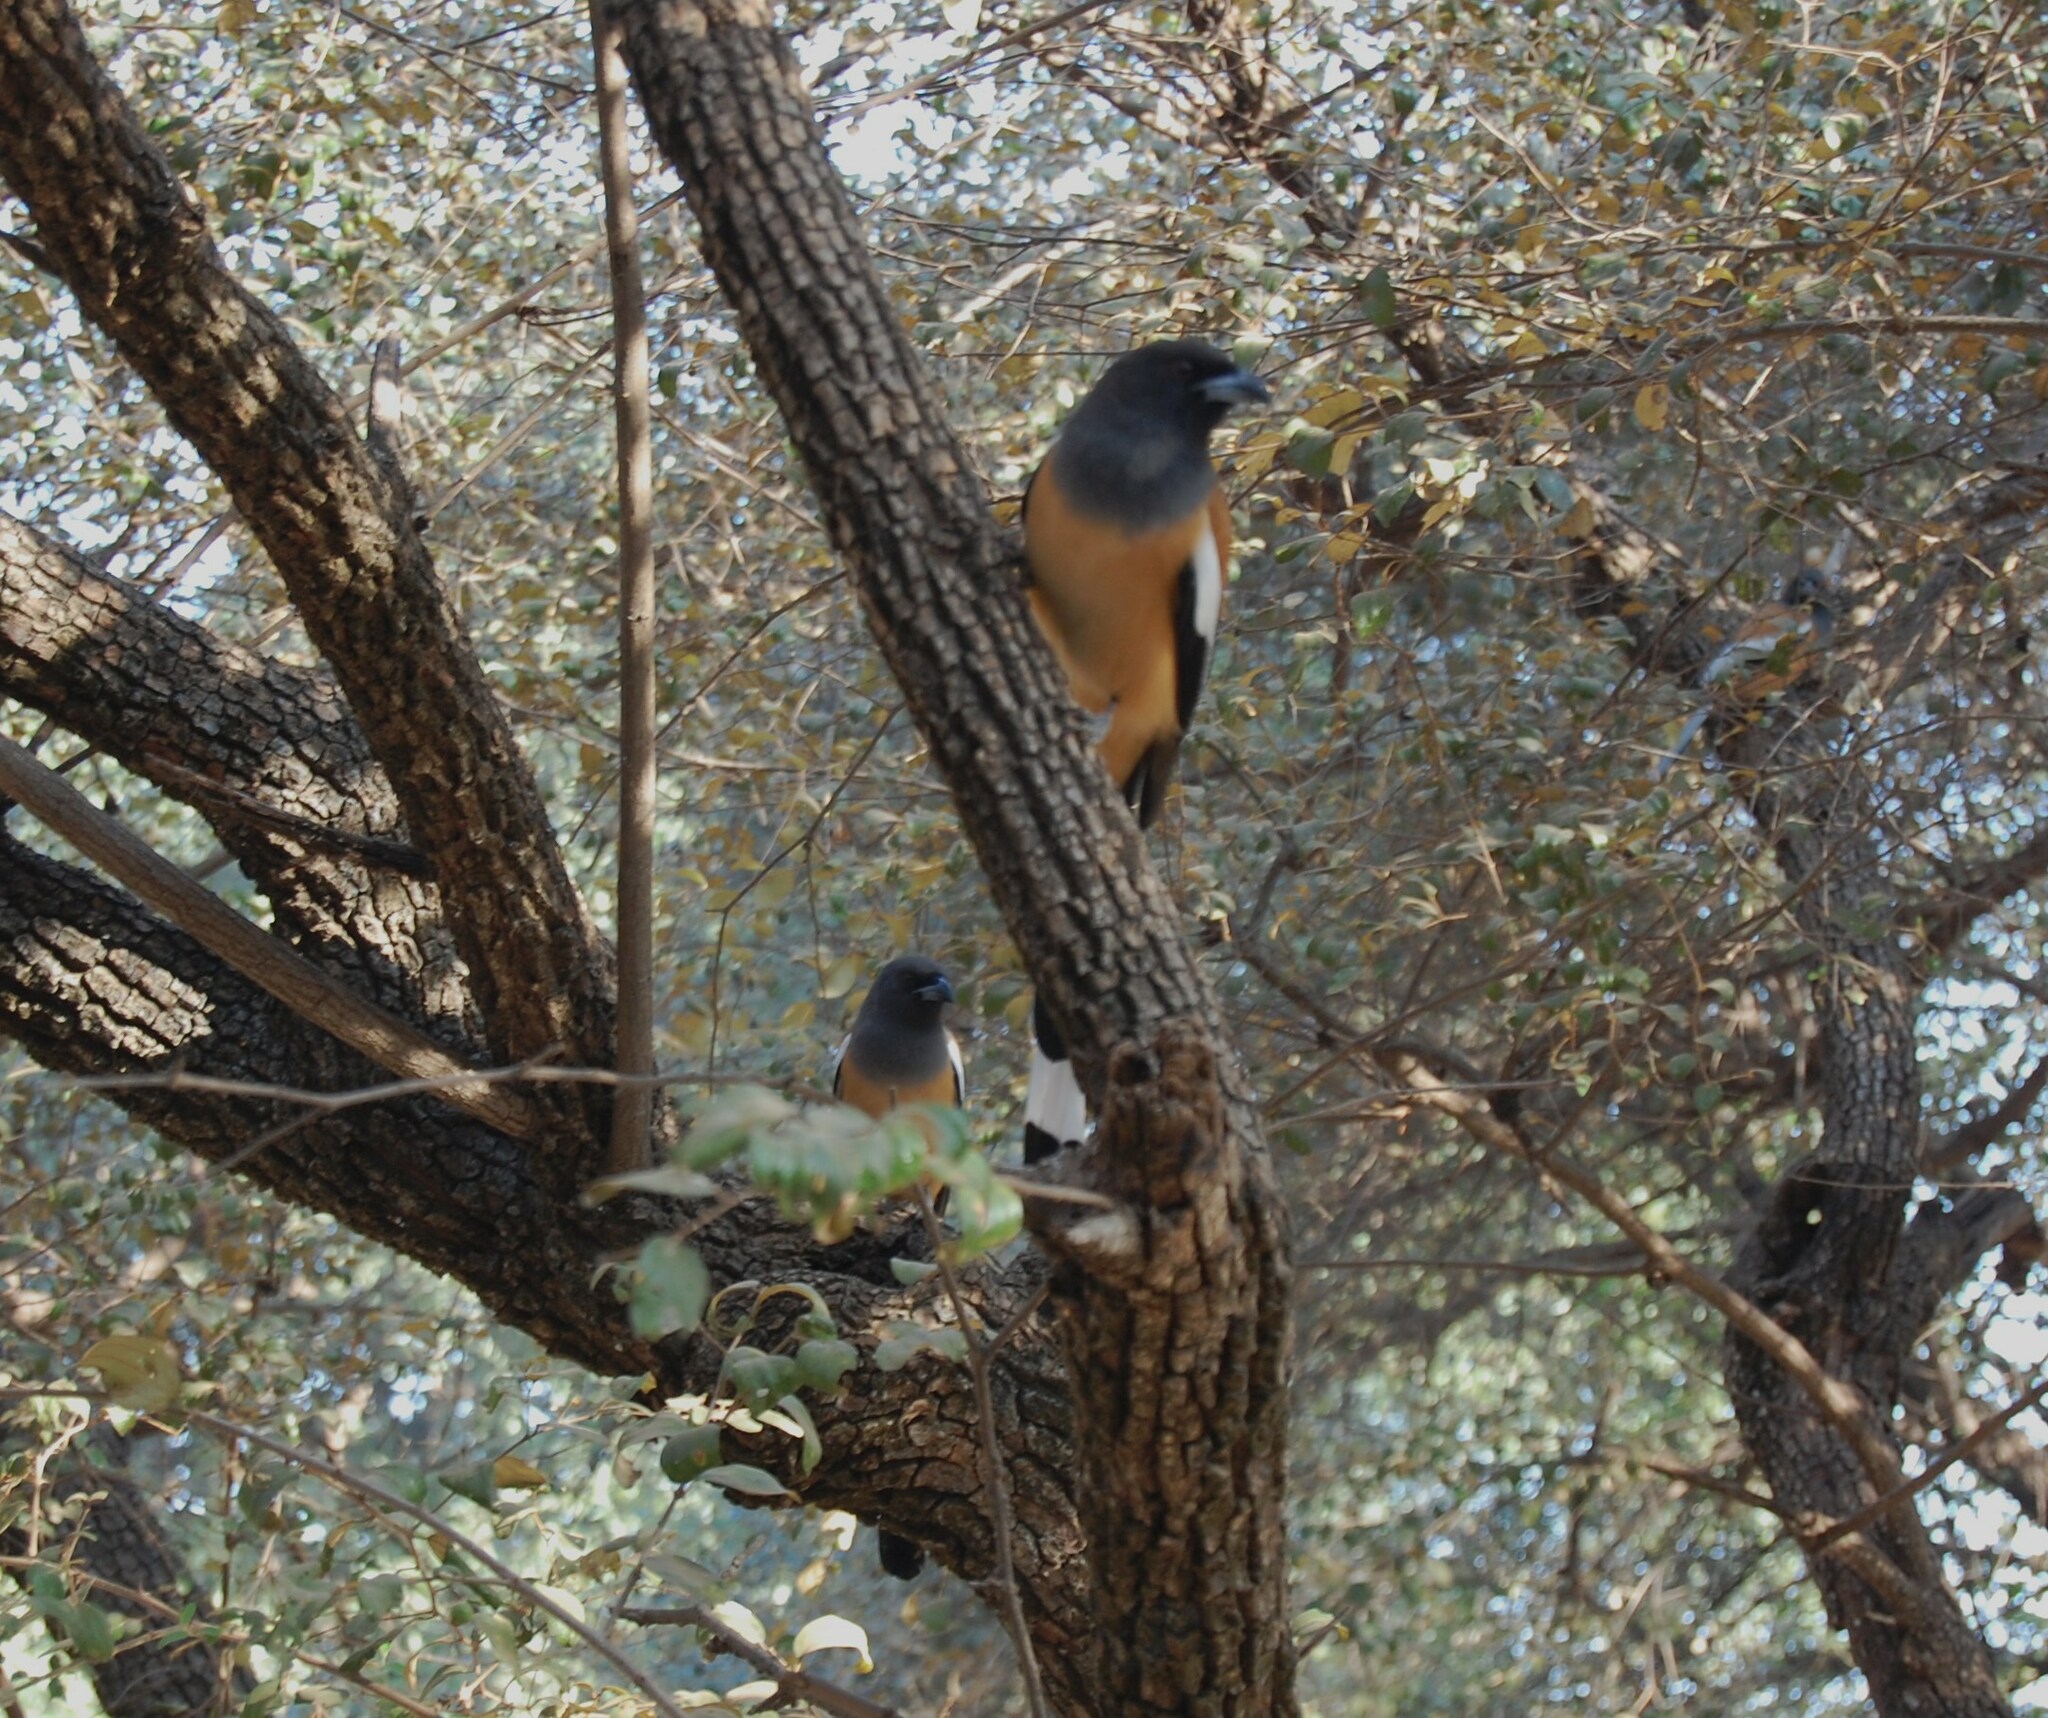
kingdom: Animalia
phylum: Chordata
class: Aves
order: Passeriformes
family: Corvidae
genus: Dendrocitta
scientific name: Dendrocitta vagabunda
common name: Rufous treepie
